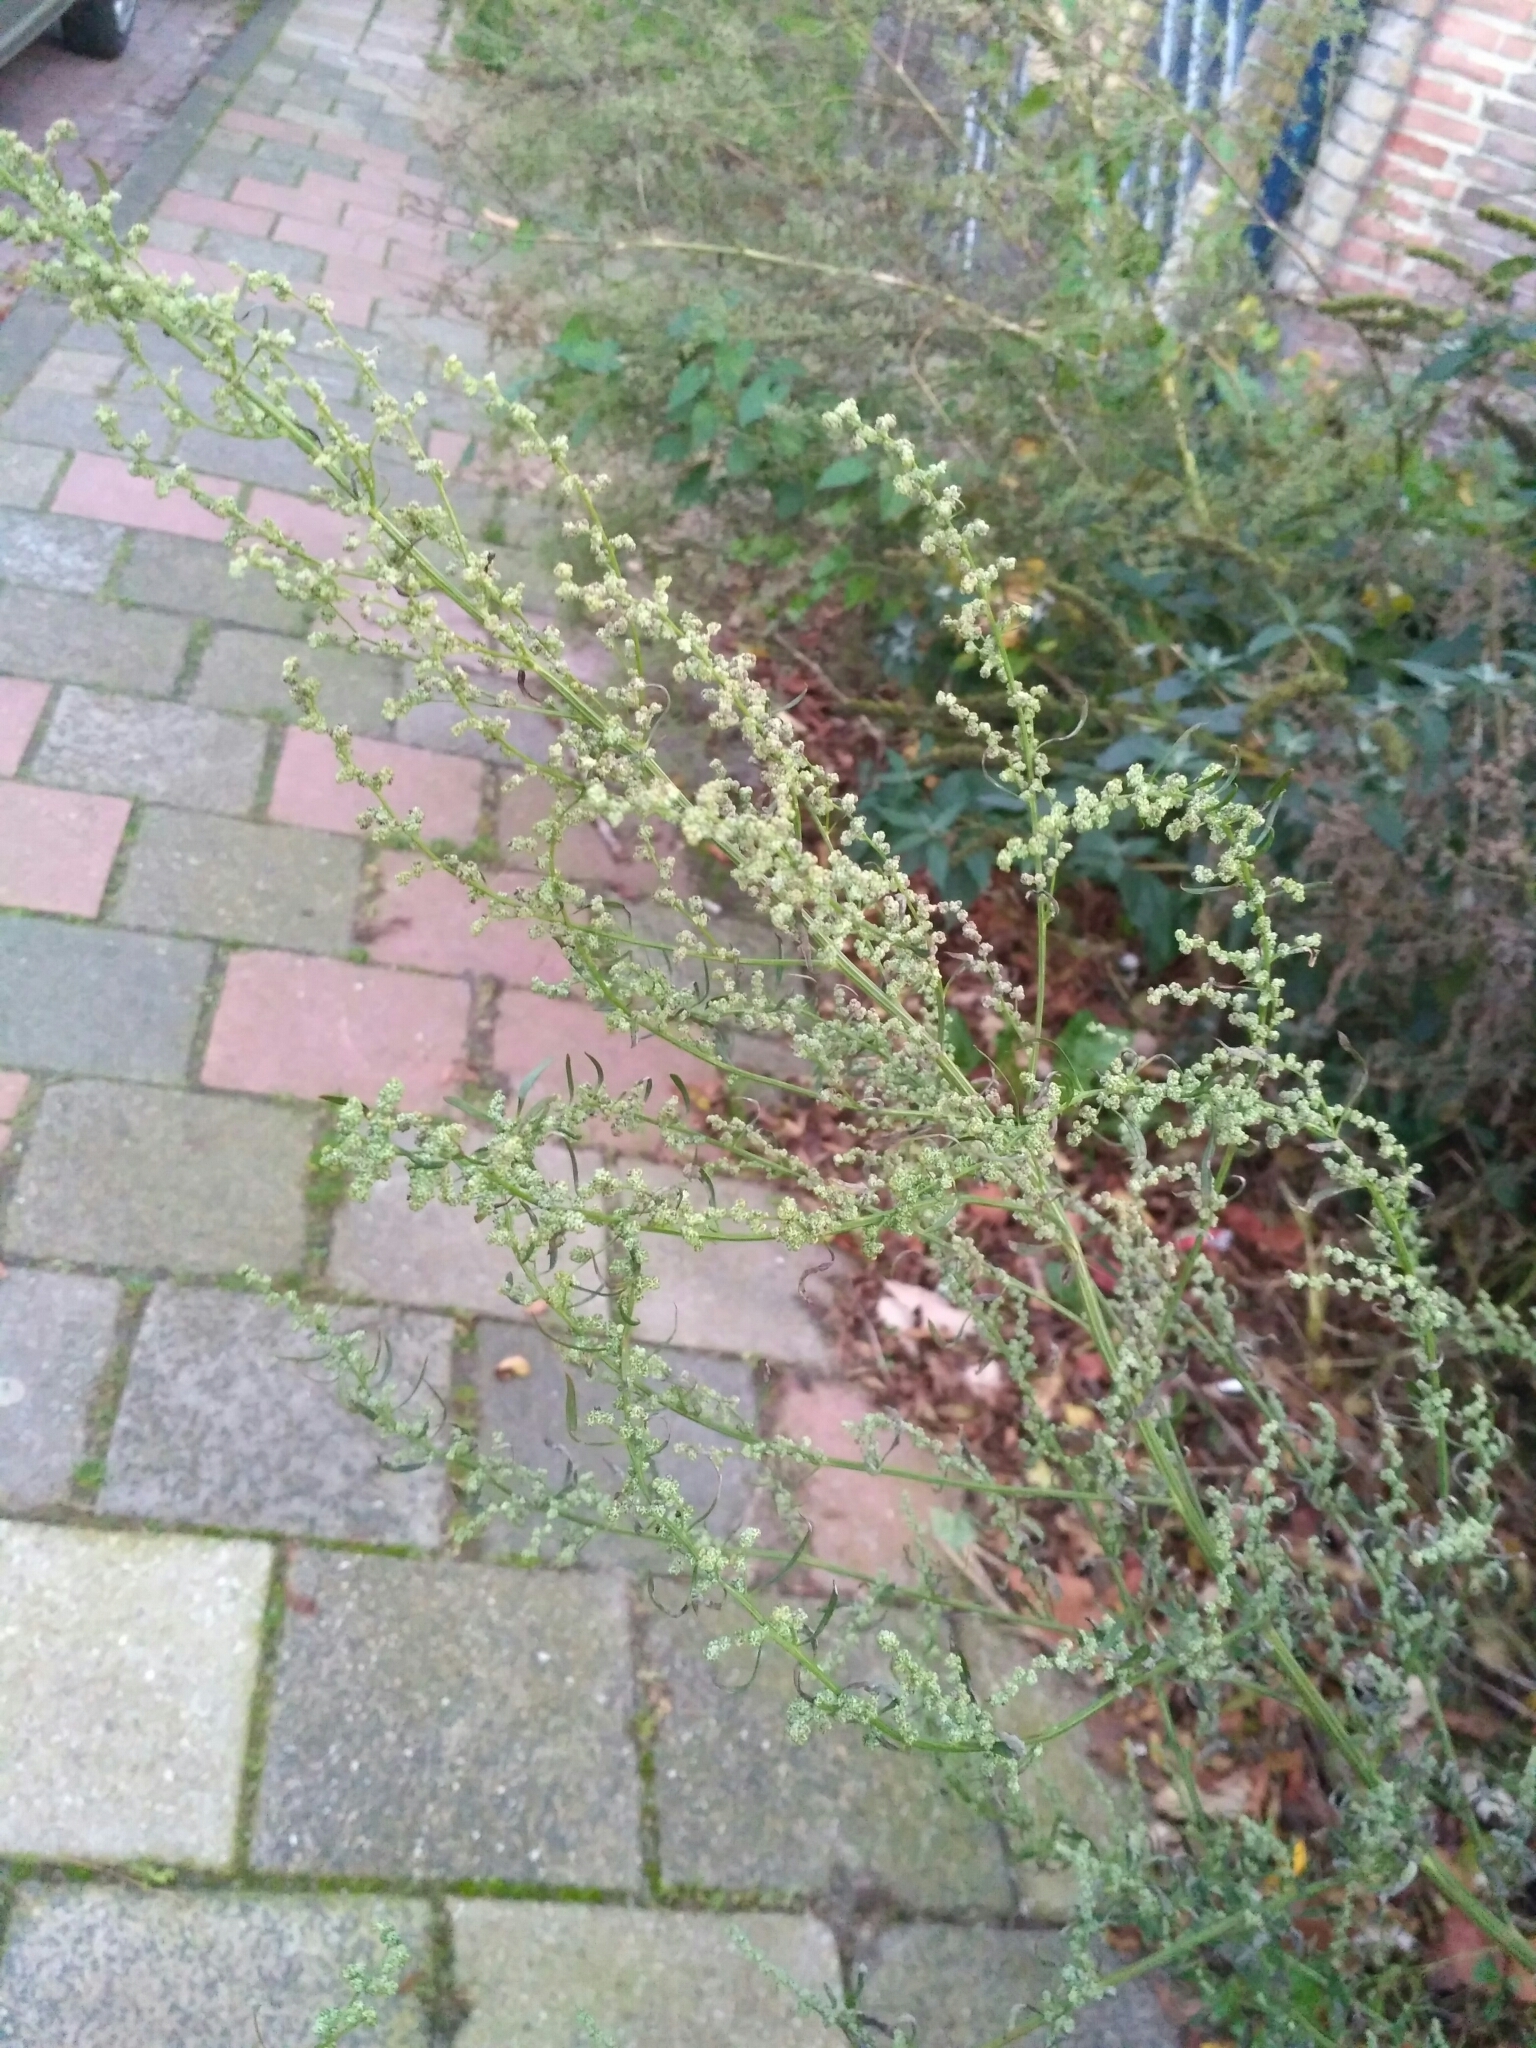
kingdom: Plantae
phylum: Tracheophyta
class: Magnoliopsida
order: Asterales
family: Asteraceae
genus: Artemisia
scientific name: Artemisia vulgaris
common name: Mugwort
